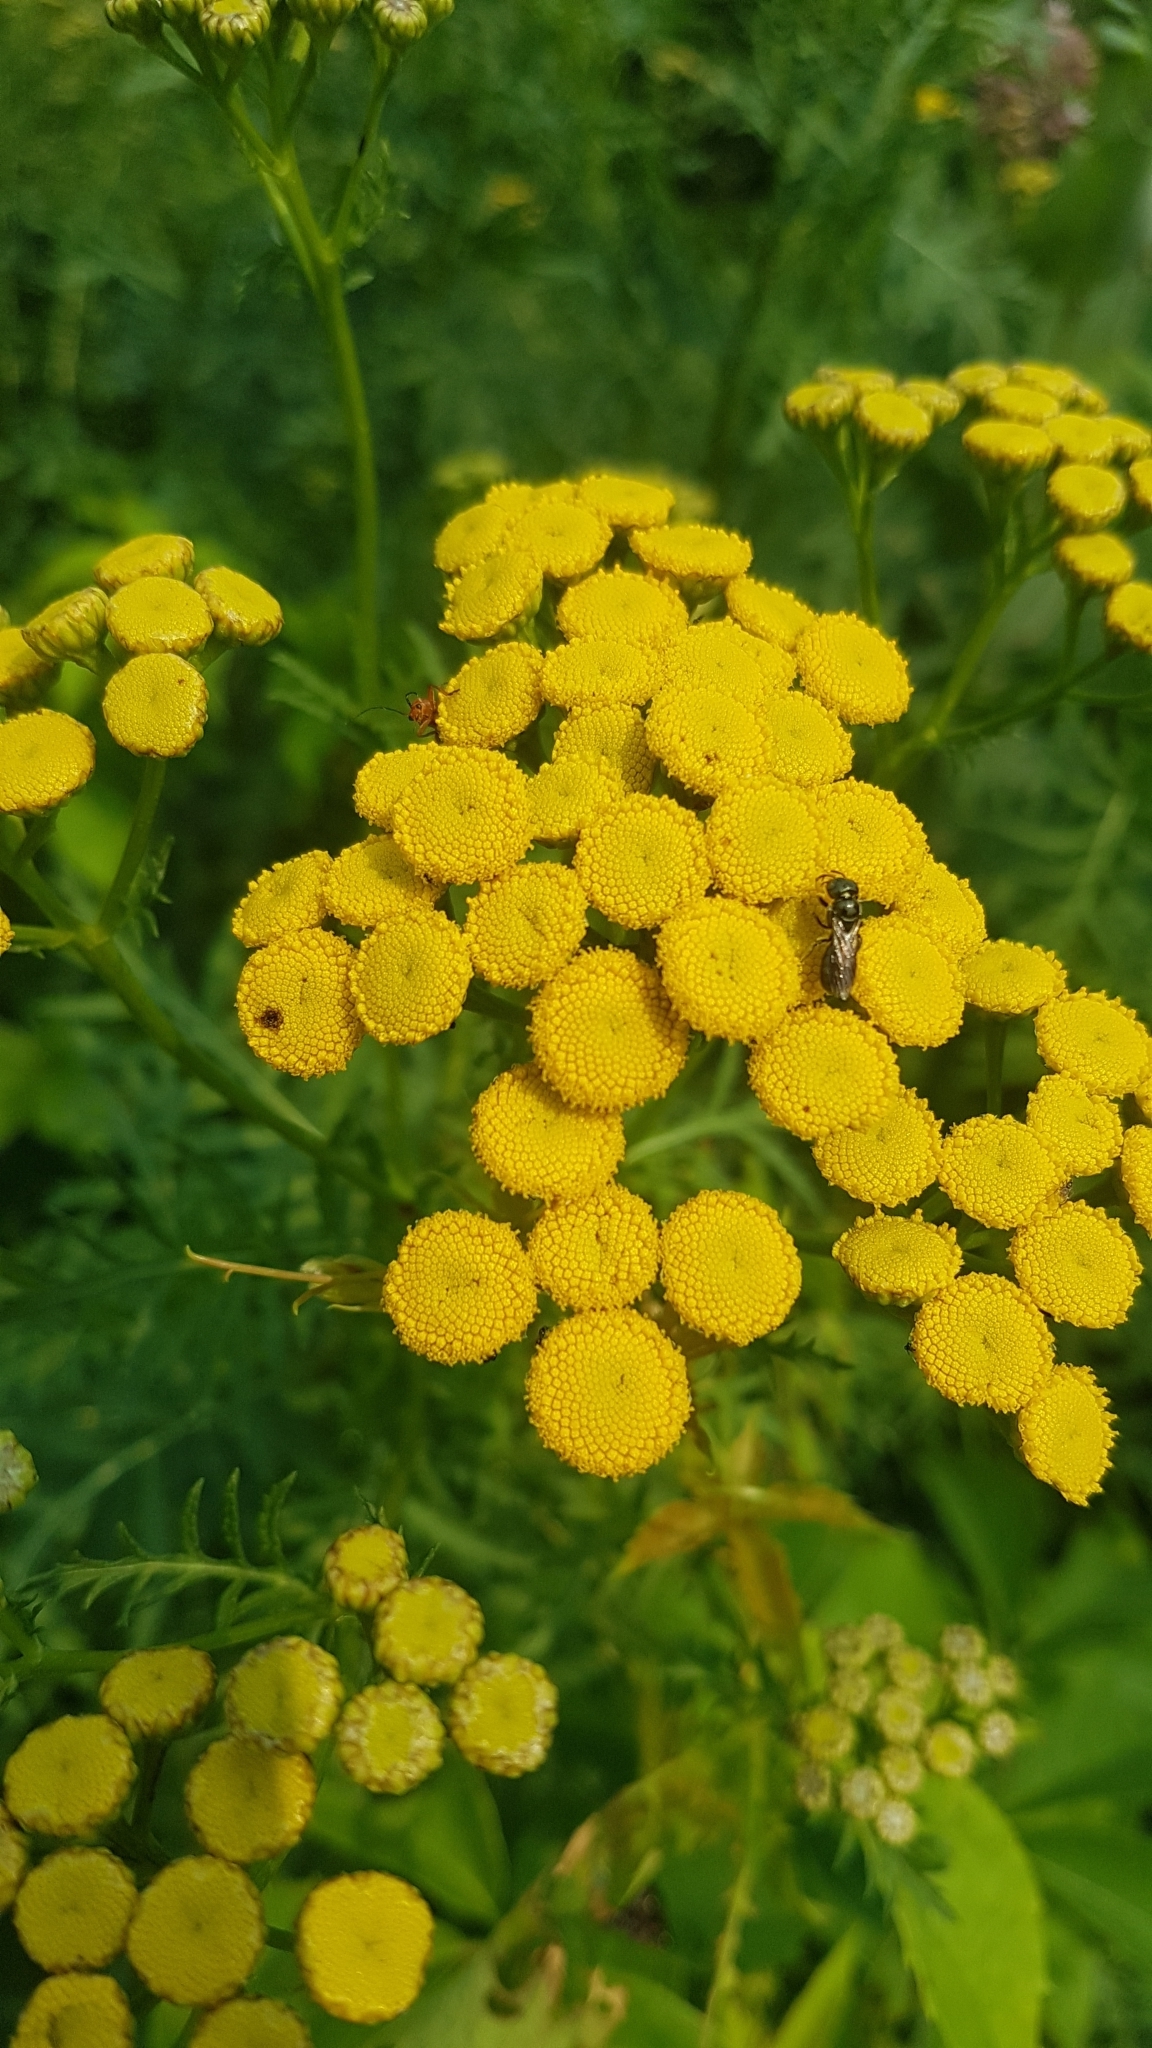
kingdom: Plantae
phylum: Tracheophyta
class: Magnoliopsida
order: Asterales
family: Asteraceae
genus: Tanacetum
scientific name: Tanacetum vulgare
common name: Common tansy
